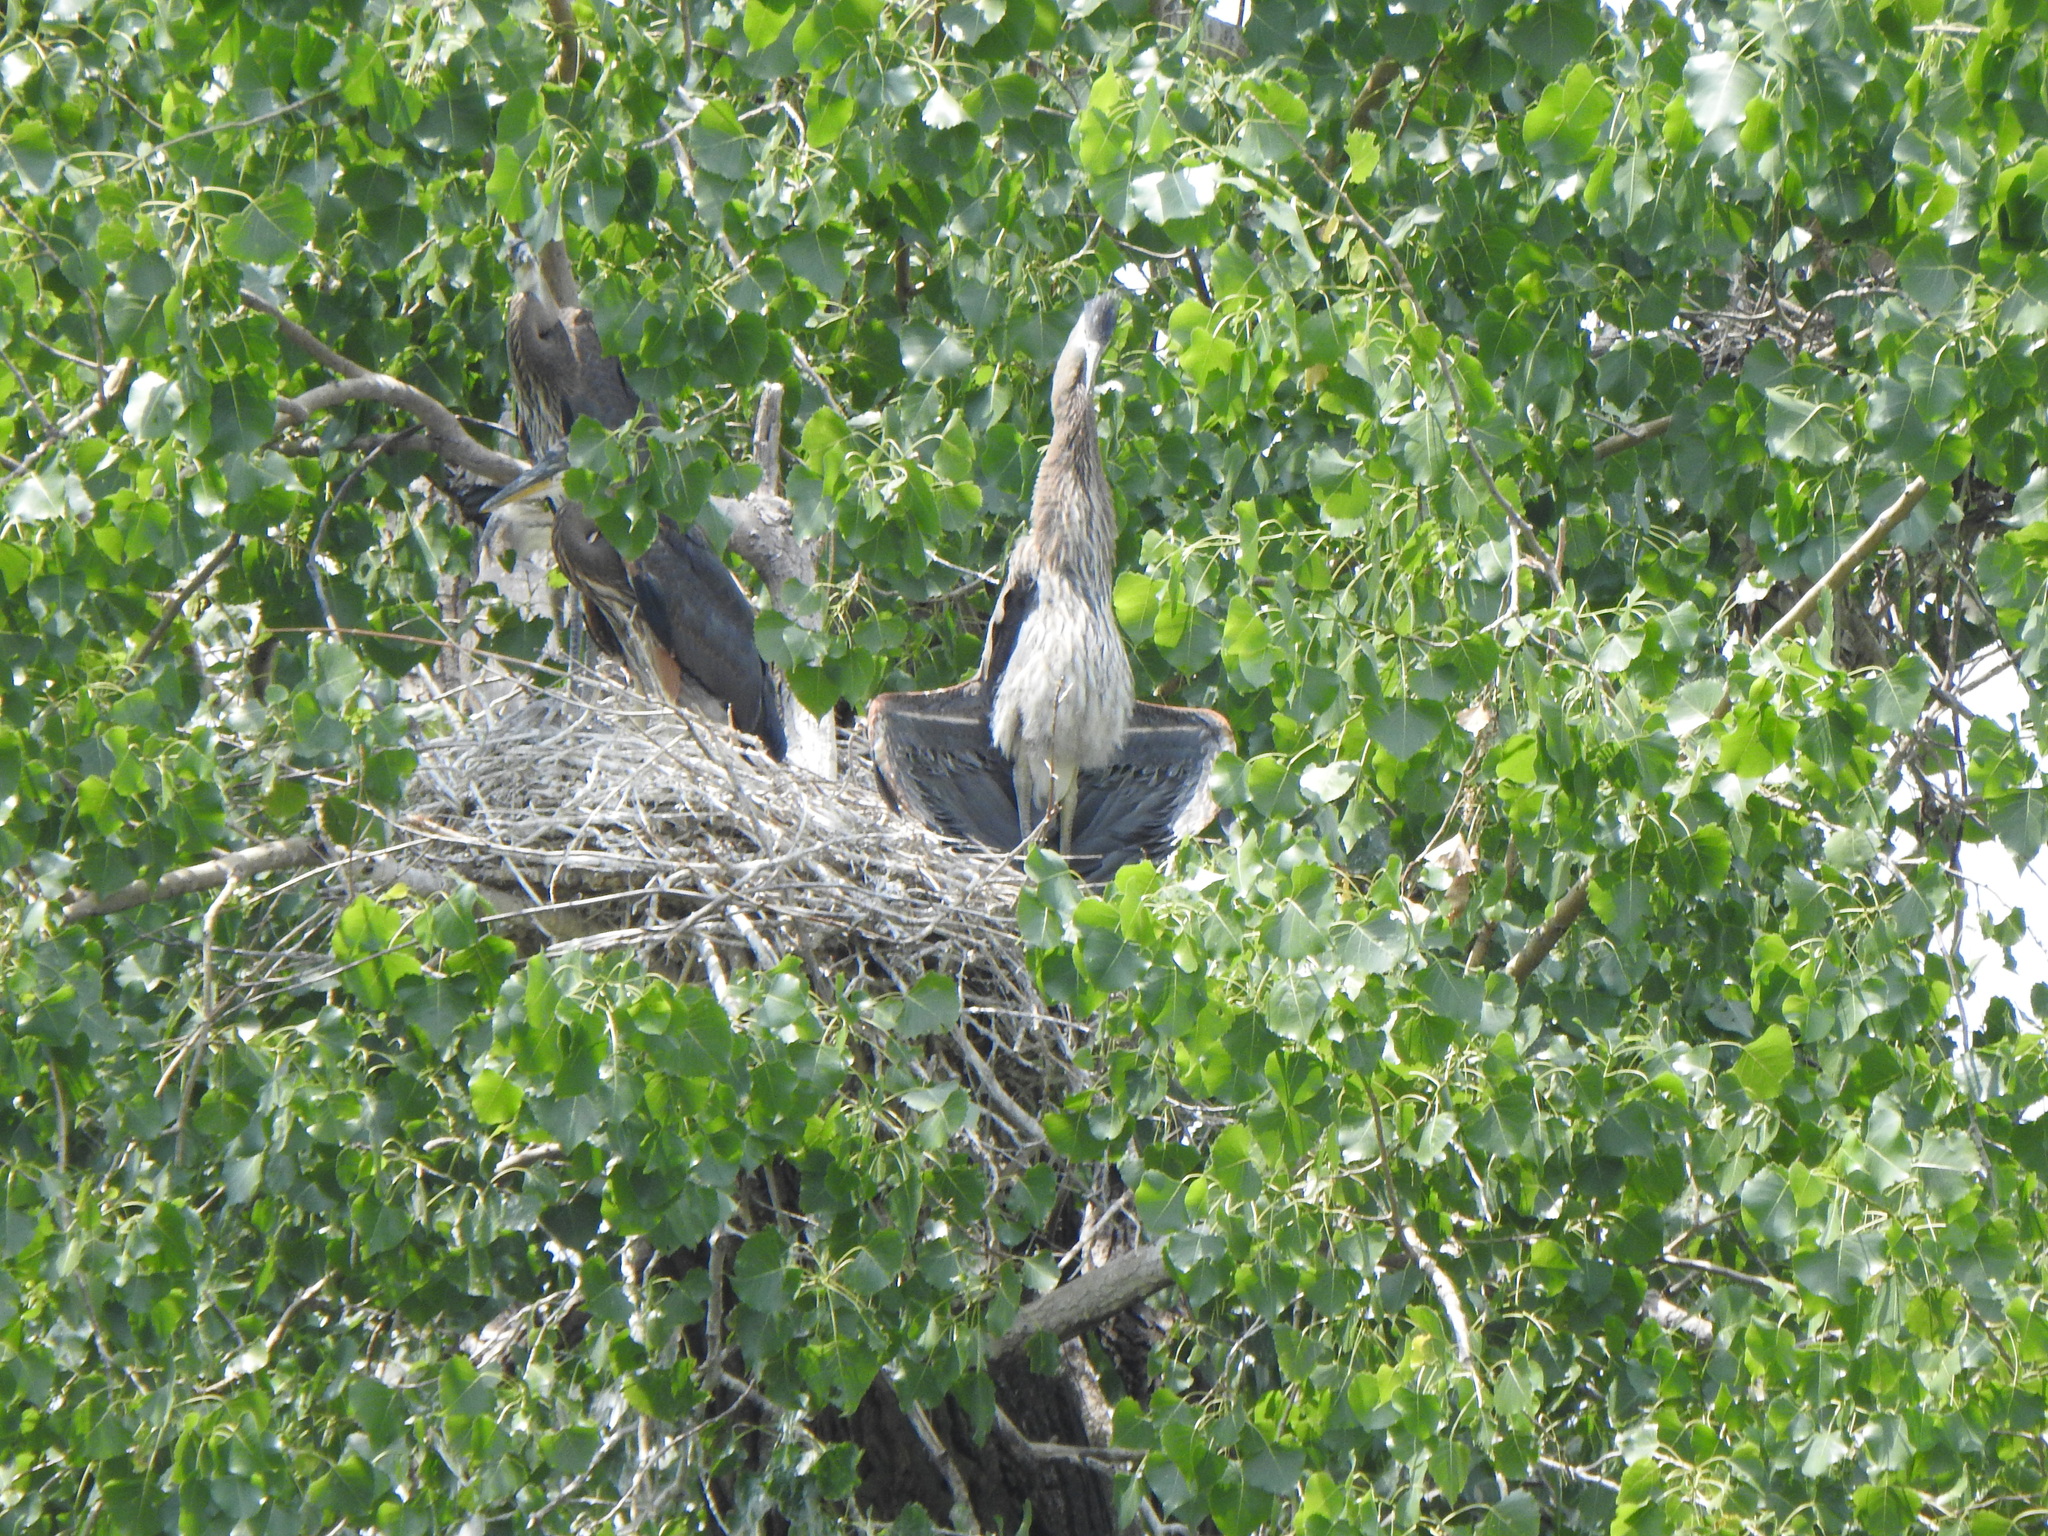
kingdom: Animalia
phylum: Chordata
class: Aves
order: Pelecaniformes
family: Ardeidae
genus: Ardea
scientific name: Ardea herodias
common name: Great blue heron
